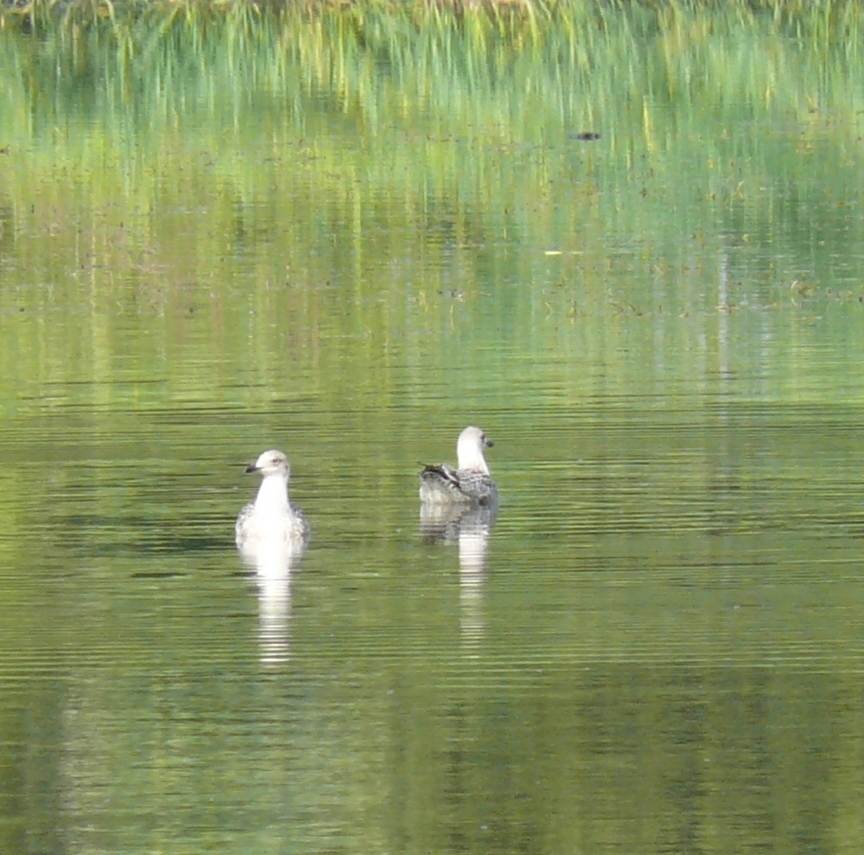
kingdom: Animalia
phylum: Chordata
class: Aves
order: Charadriiformes
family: Laridae
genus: Larus
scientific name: Larus cachinnans
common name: Caspian gull
